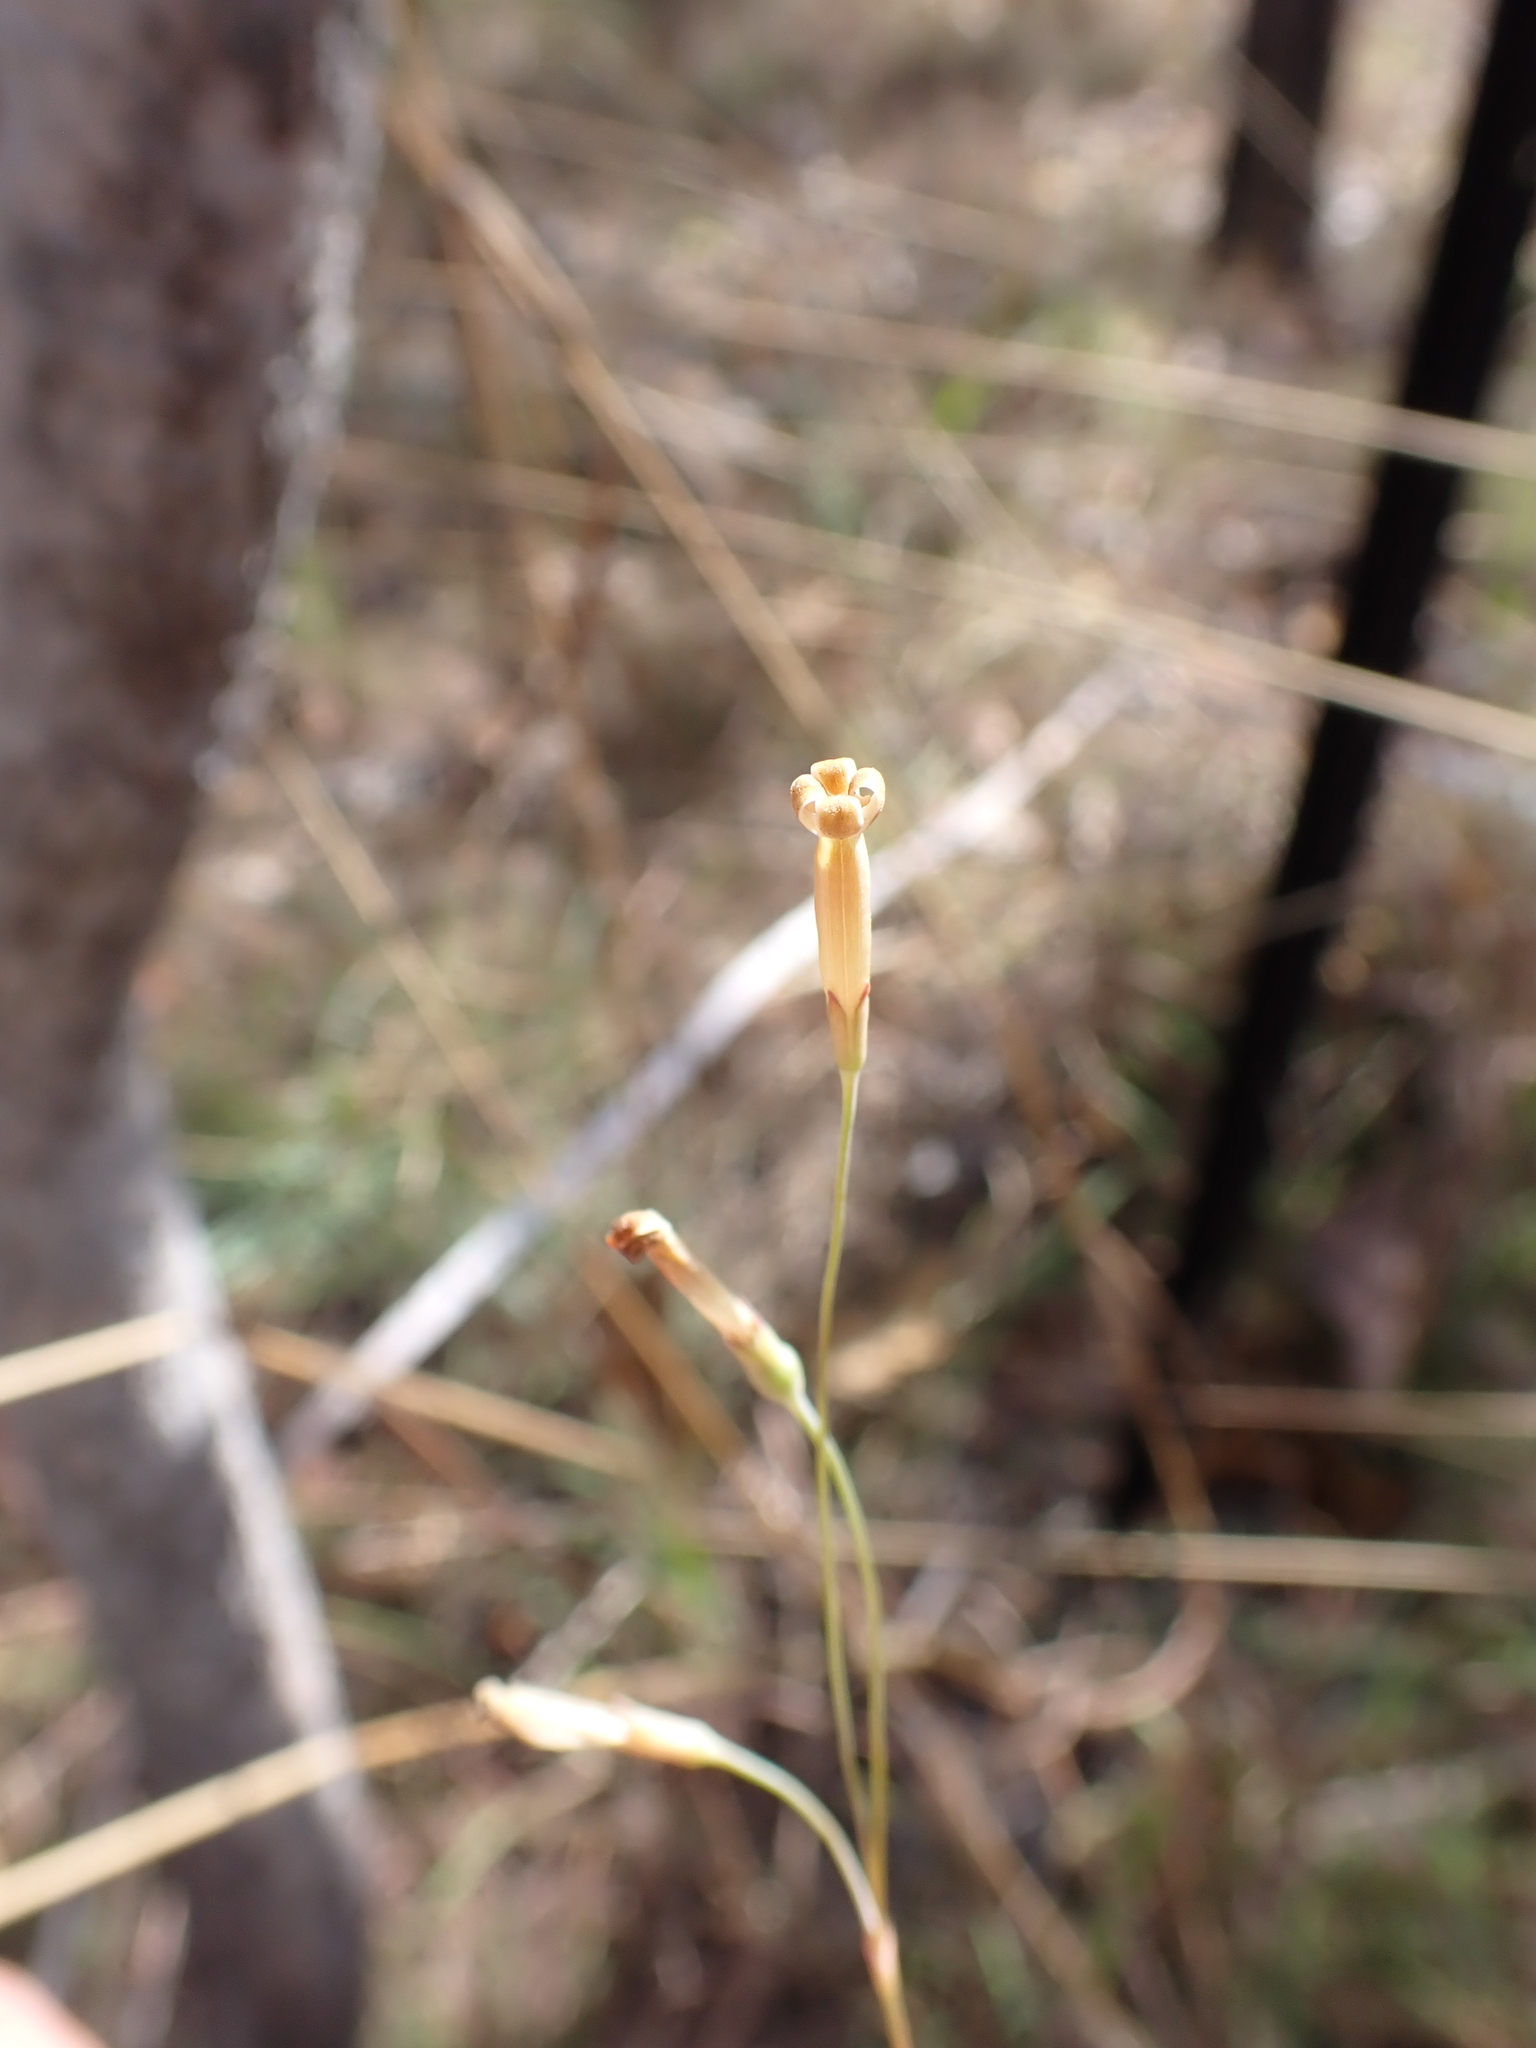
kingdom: Plantae
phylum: Tracheophyta
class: Magnoliopsida
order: Gentianales
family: Loganiaceae
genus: Mitrasacme
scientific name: Mitrasacme connata
